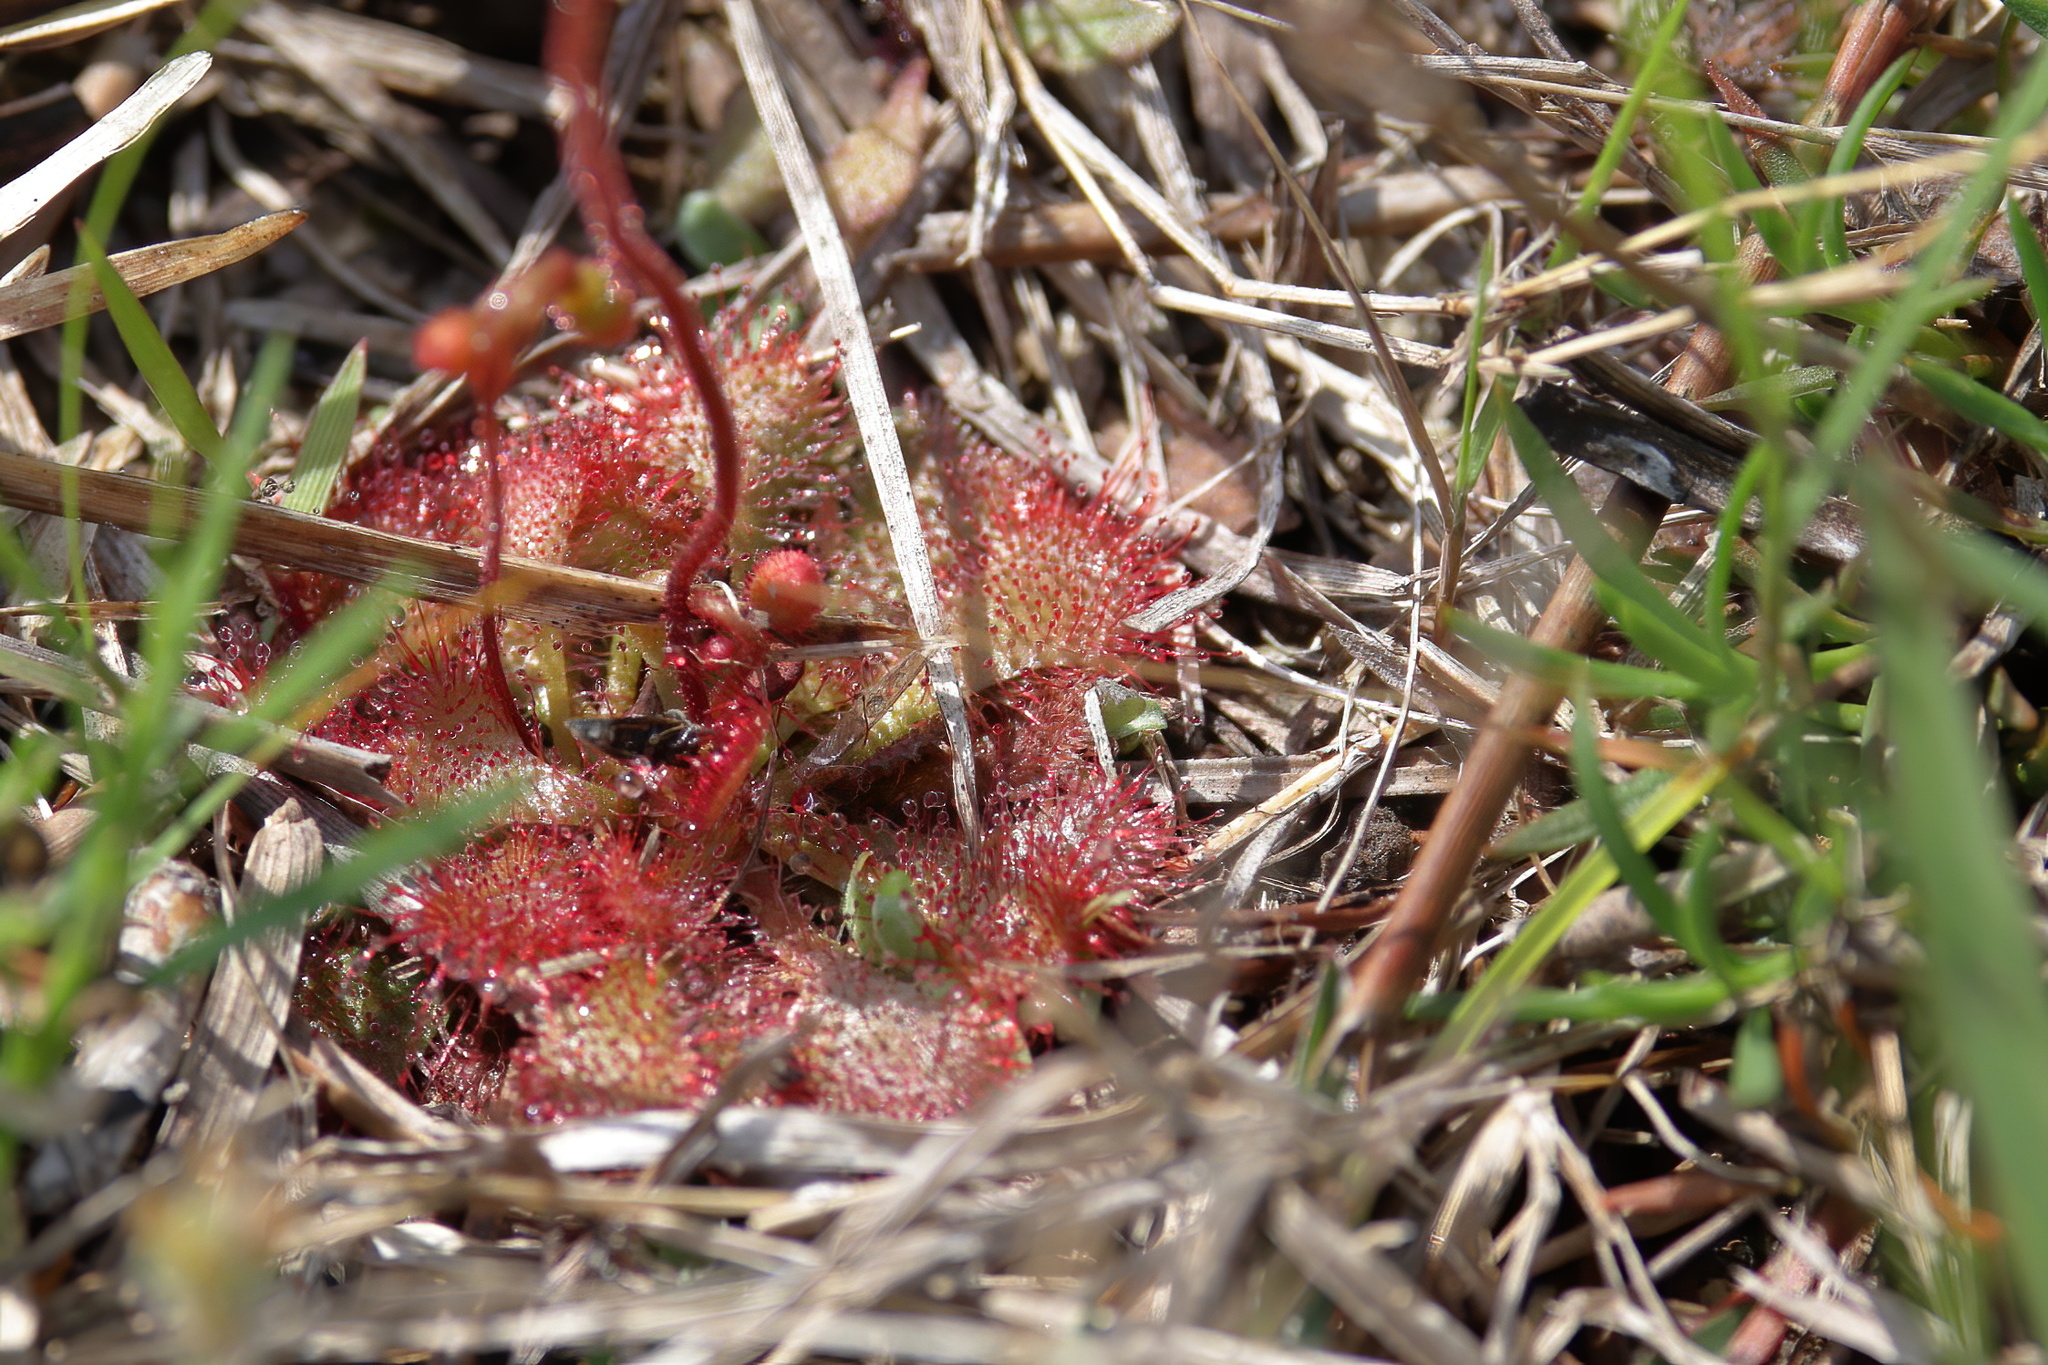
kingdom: Plantae
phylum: Tracheophyta
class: Magnoliopsida
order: Caryophyllales
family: Droseraceae
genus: Drosera
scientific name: Drosera brevifolia
